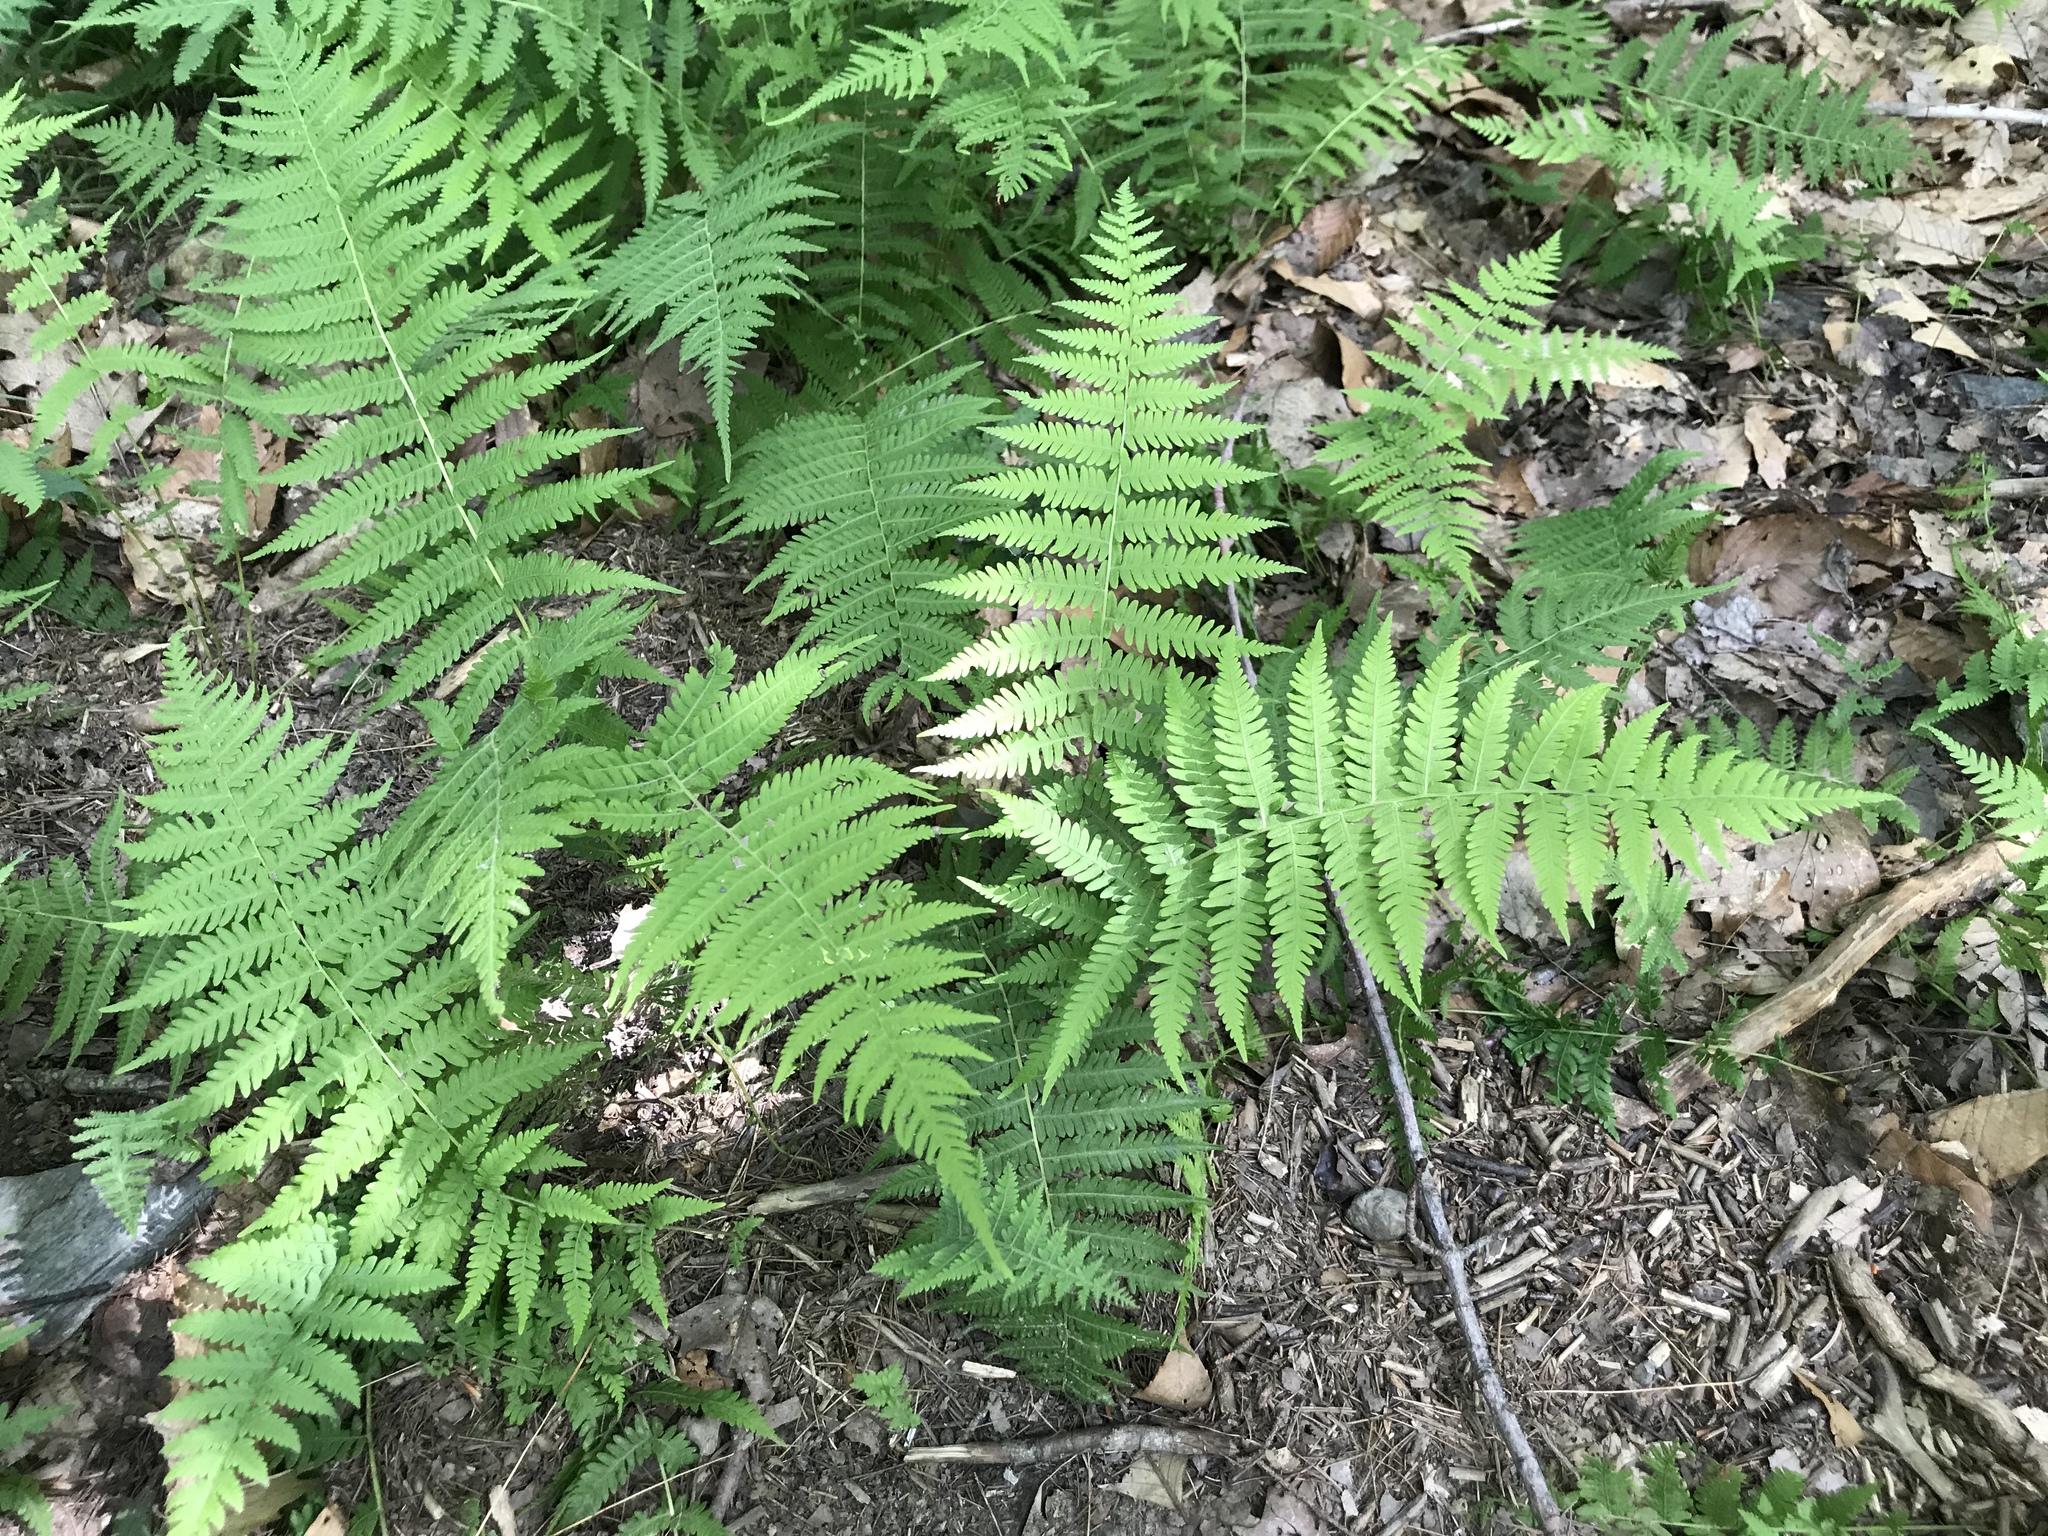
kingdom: Plantae
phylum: Tracheophyta
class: Polypodiopsida
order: Polypodiales
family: Thelypteridaceae
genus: Amauropelta
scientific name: Amauropelta noveboracensis
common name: New york fern
